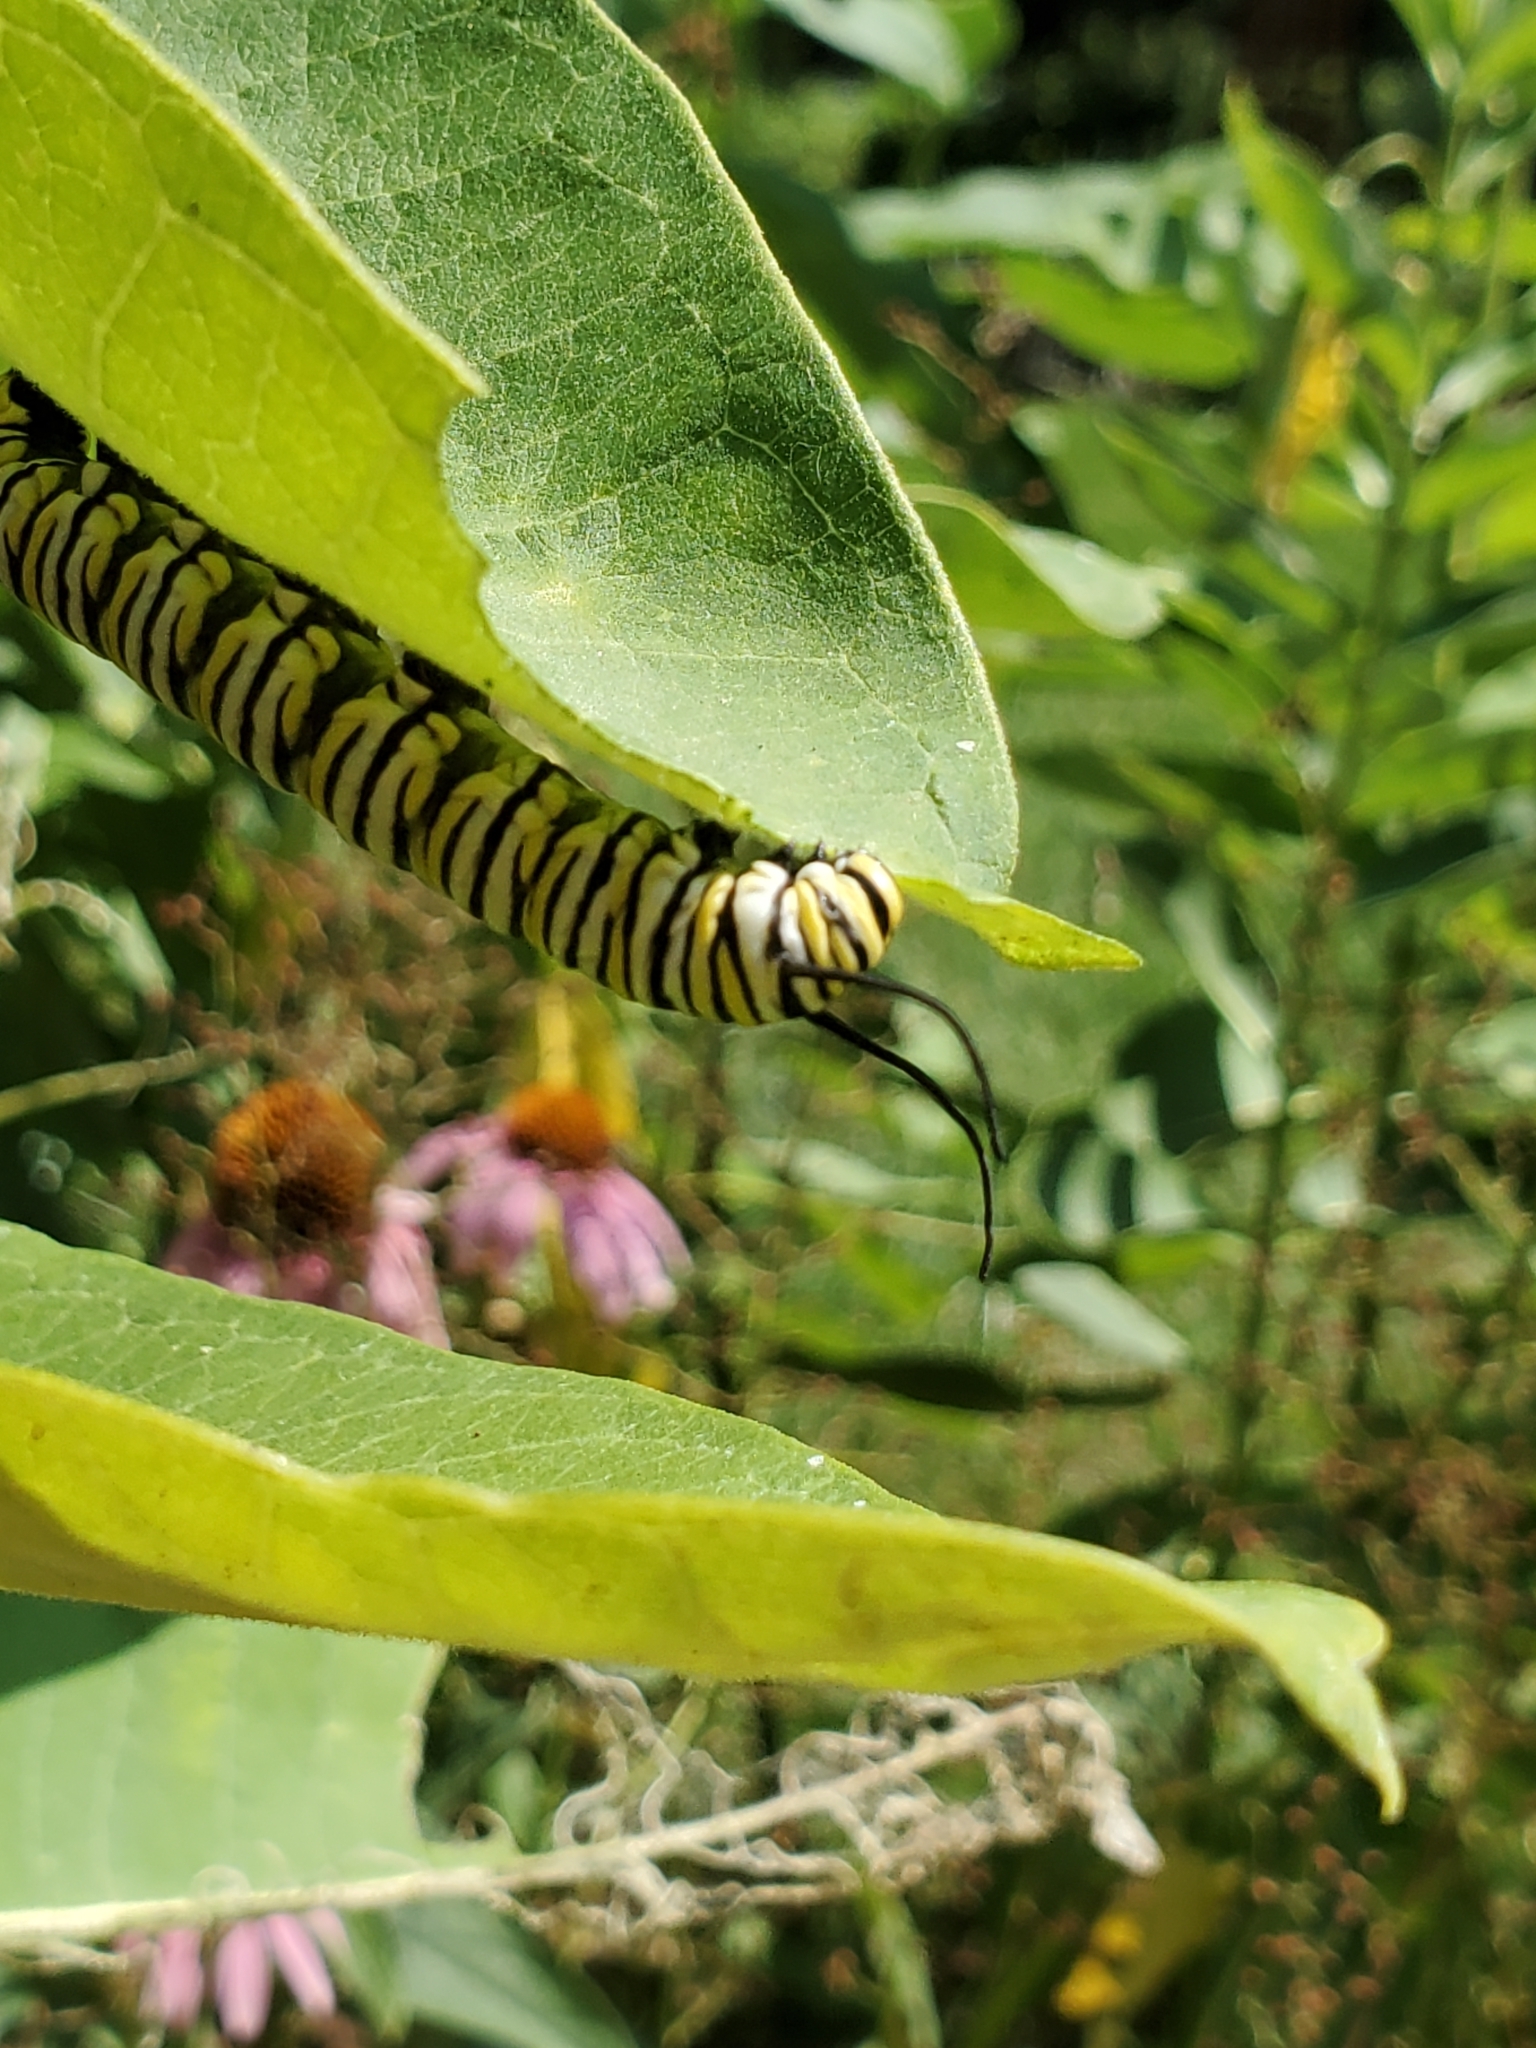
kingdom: Animalia
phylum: Arthropoda
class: Insecta
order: Lepidoptera
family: Nymphalidae
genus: Danaus
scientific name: Danaus plexippus
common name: Monarch
